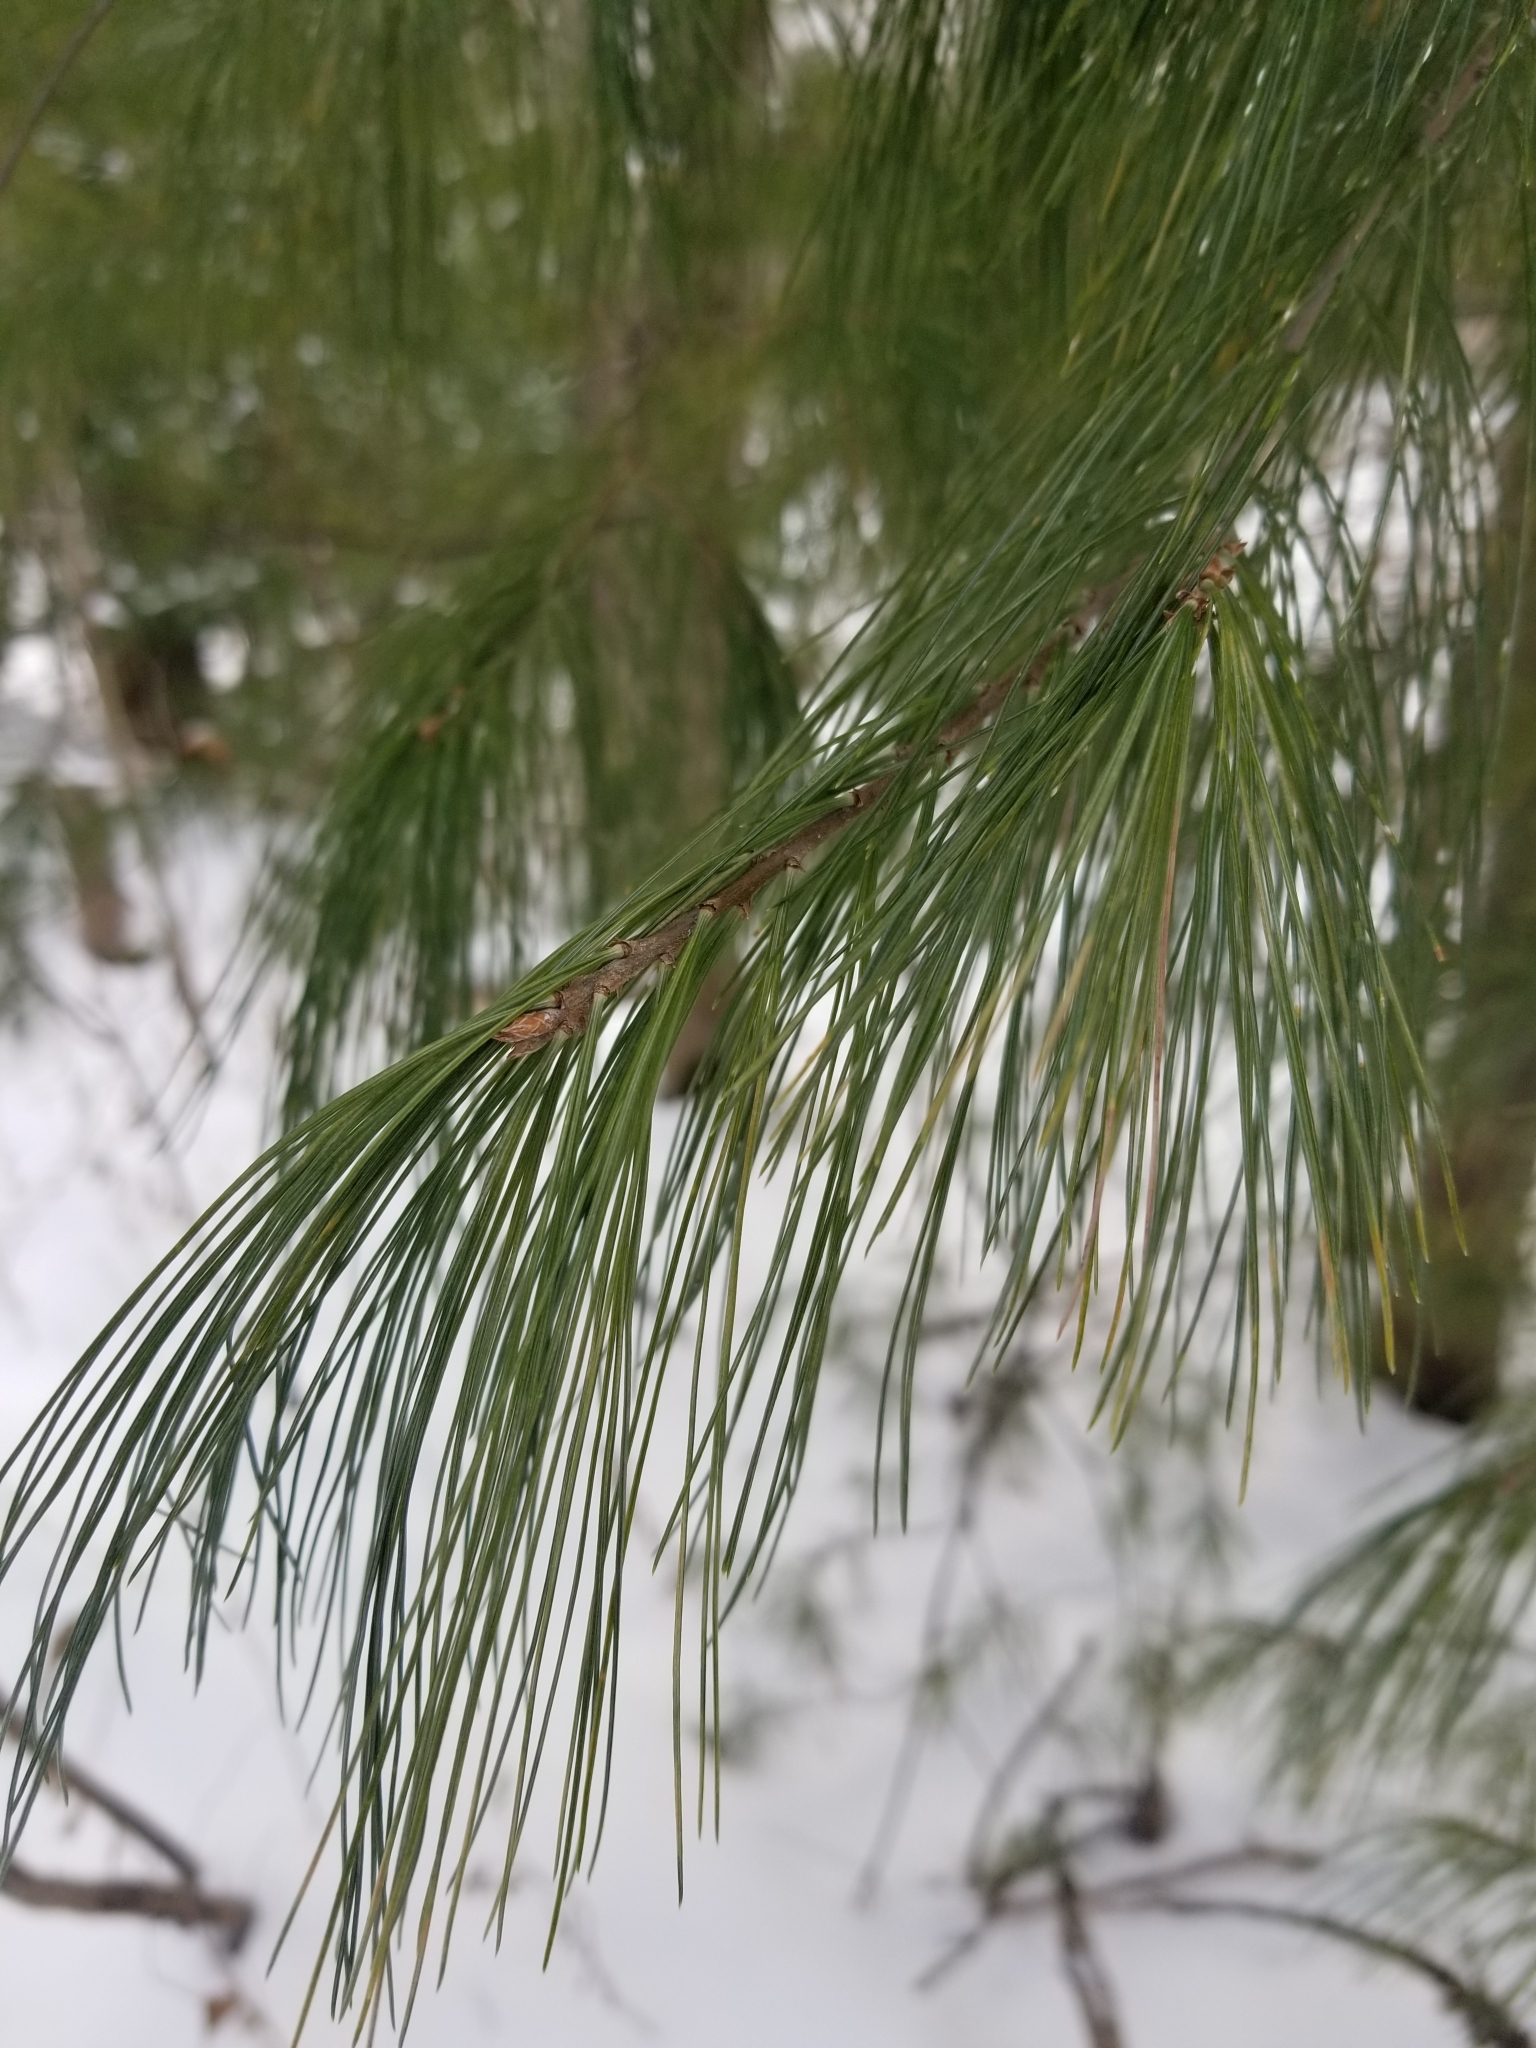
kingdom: Plantae
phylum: Tracheophyta
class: Pinopsida
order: Pinales
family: Pinaceae
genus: Pinus
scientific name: Pinus strobus
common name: Weymouth pine
